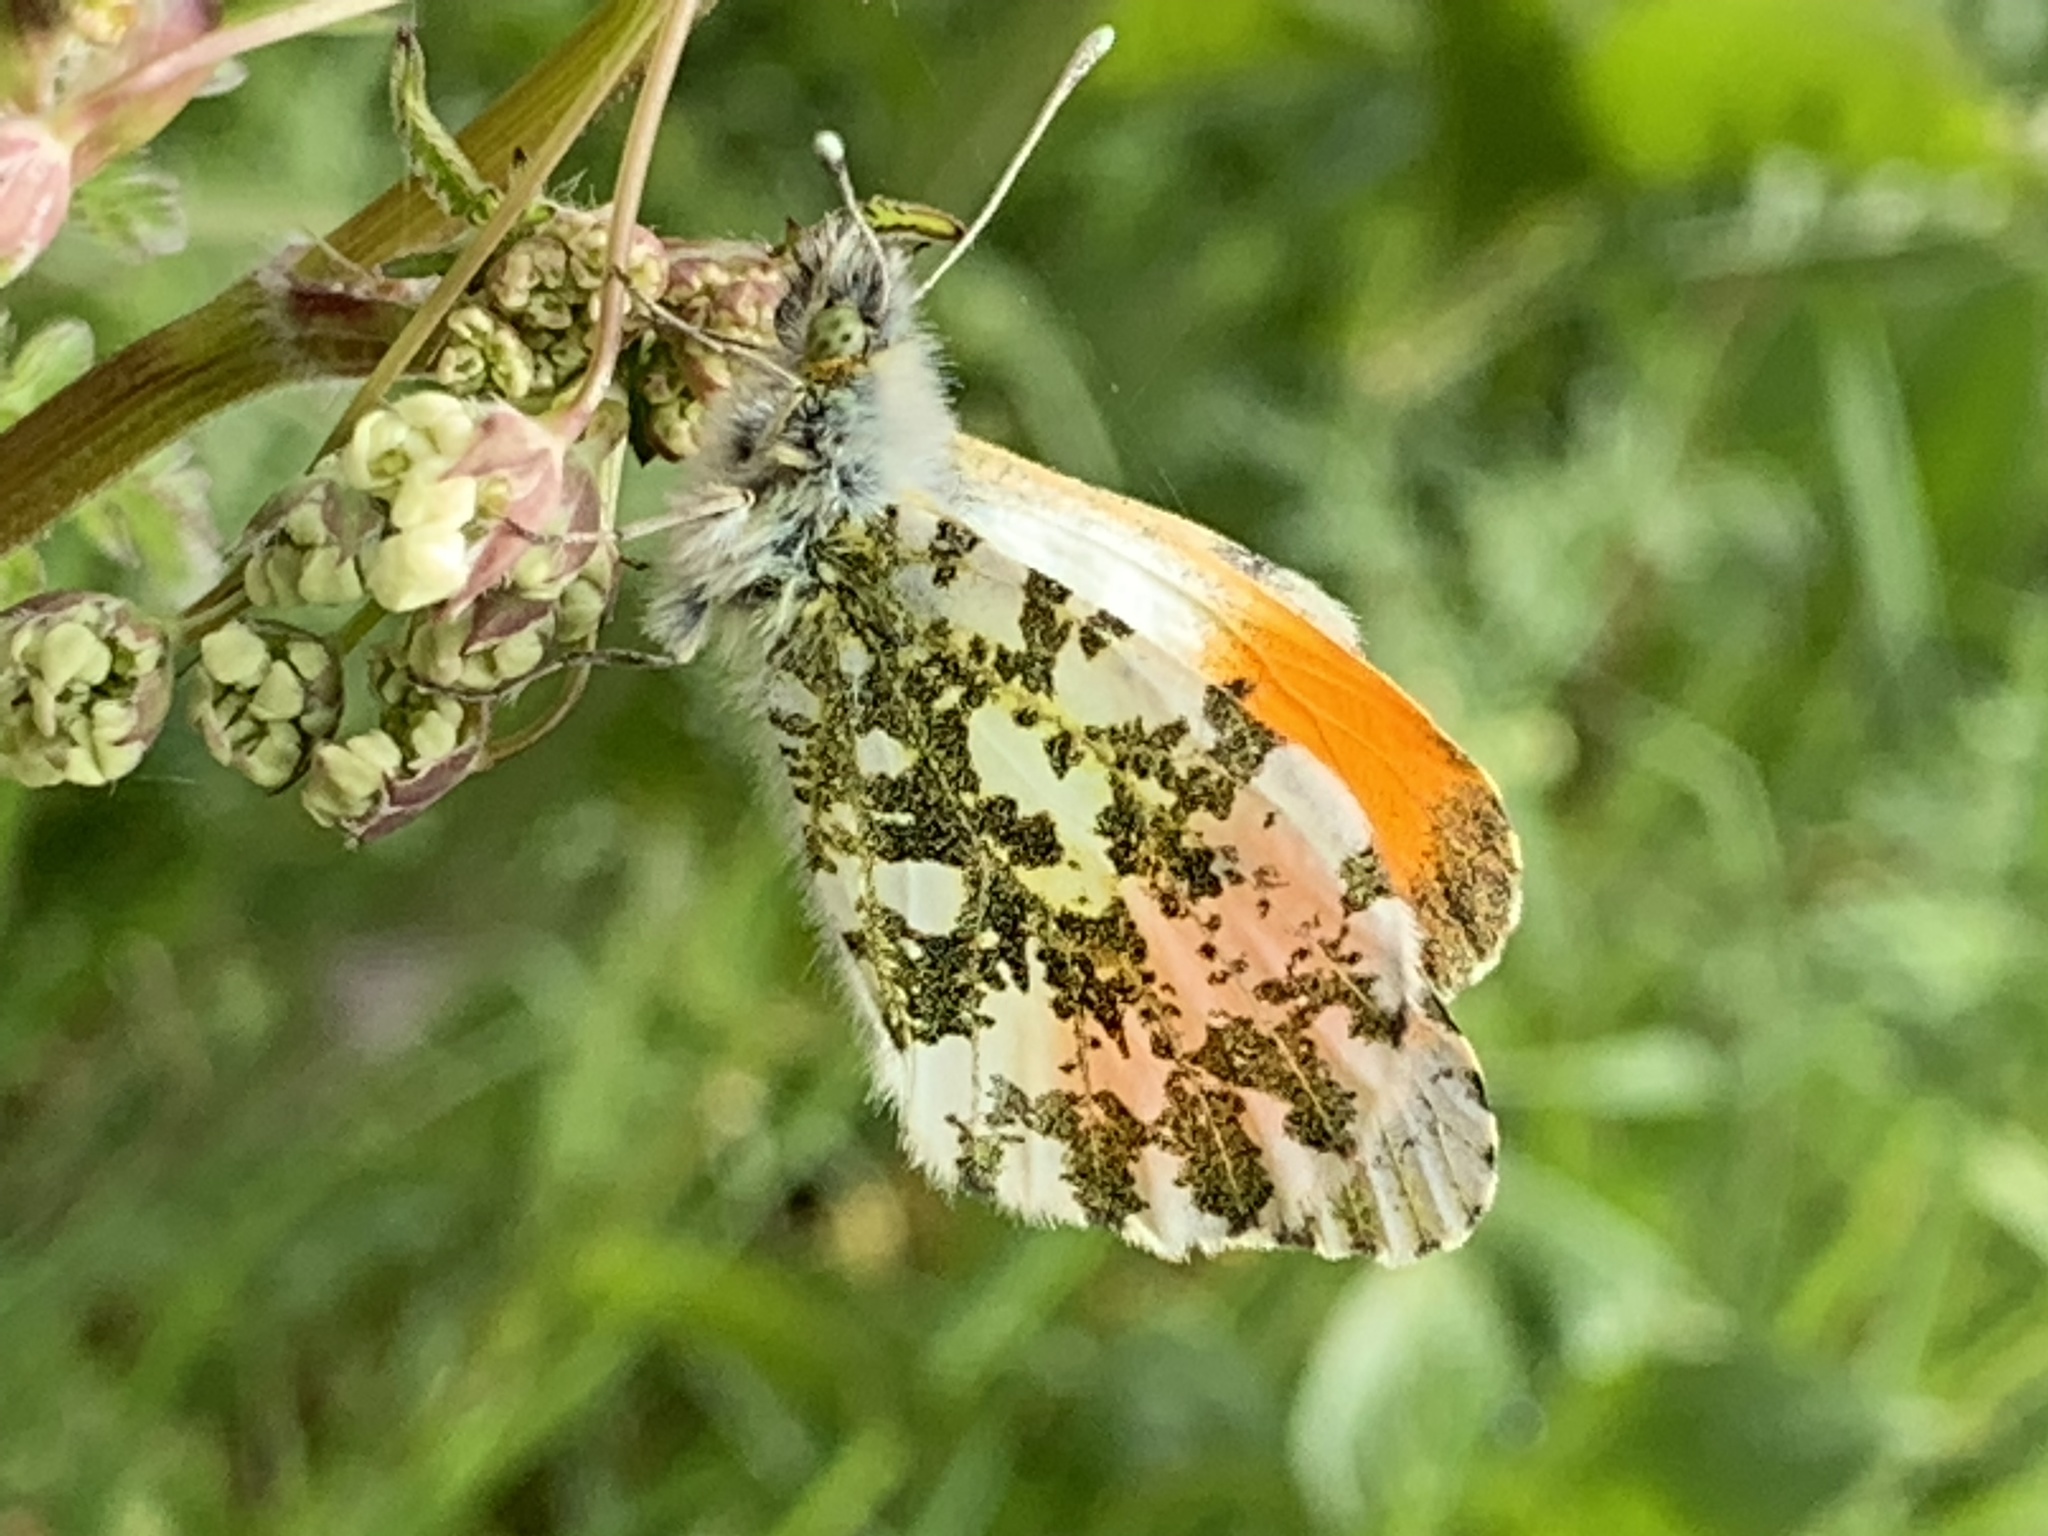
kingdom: Animalia
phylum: Arthropoda
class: Insecta
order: Lepidoptera
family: Pieridae
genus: Anthocharis
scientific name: Anthocharis cardamines
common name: Orange-tip
